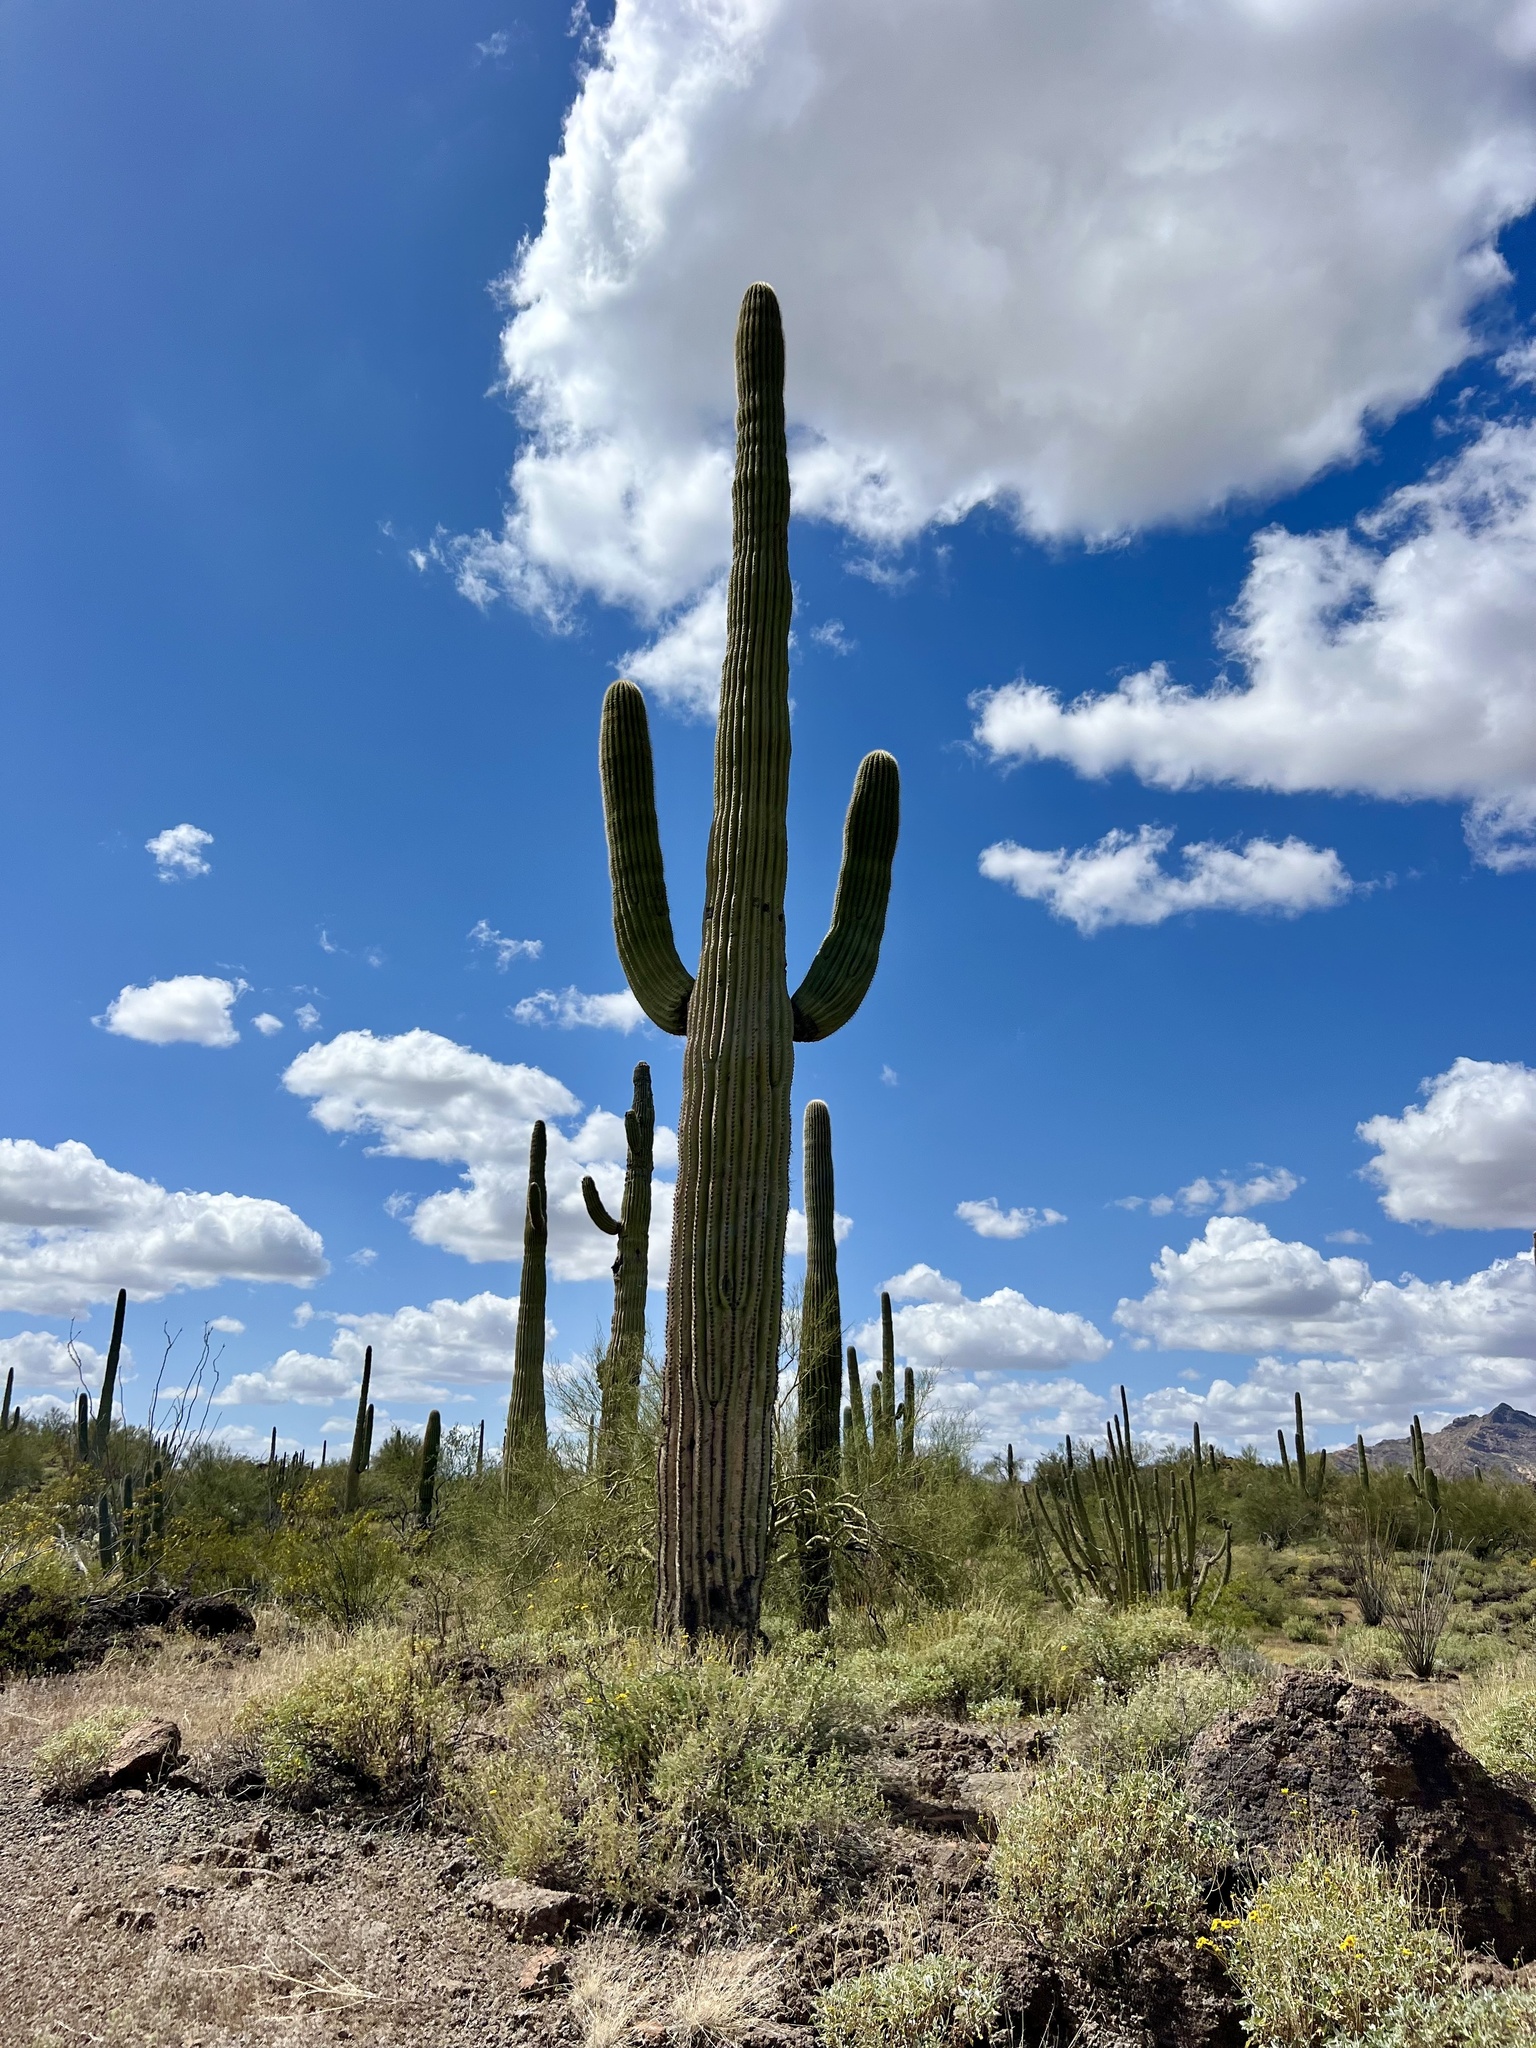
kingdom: Plantae
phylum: Tracheophyta
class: Magnoliopsida
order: Caryophyllales
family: Cactaceae
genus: Carnegiea
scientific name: Carnegiea gigantea
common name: Saguaro
